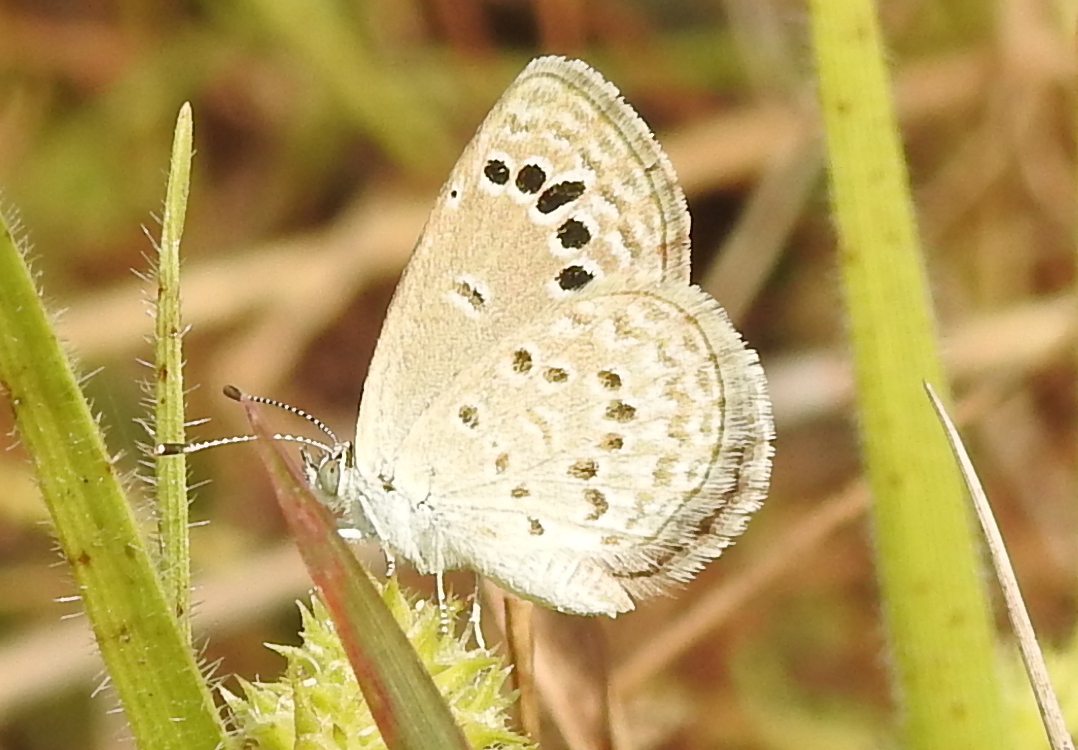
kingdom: Animalia
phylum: Arthropoda
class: Insecta
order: Lepidoptera
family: Lycaenidae
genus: Zizina
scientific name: Zizina otis
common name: Lesser grass blue
